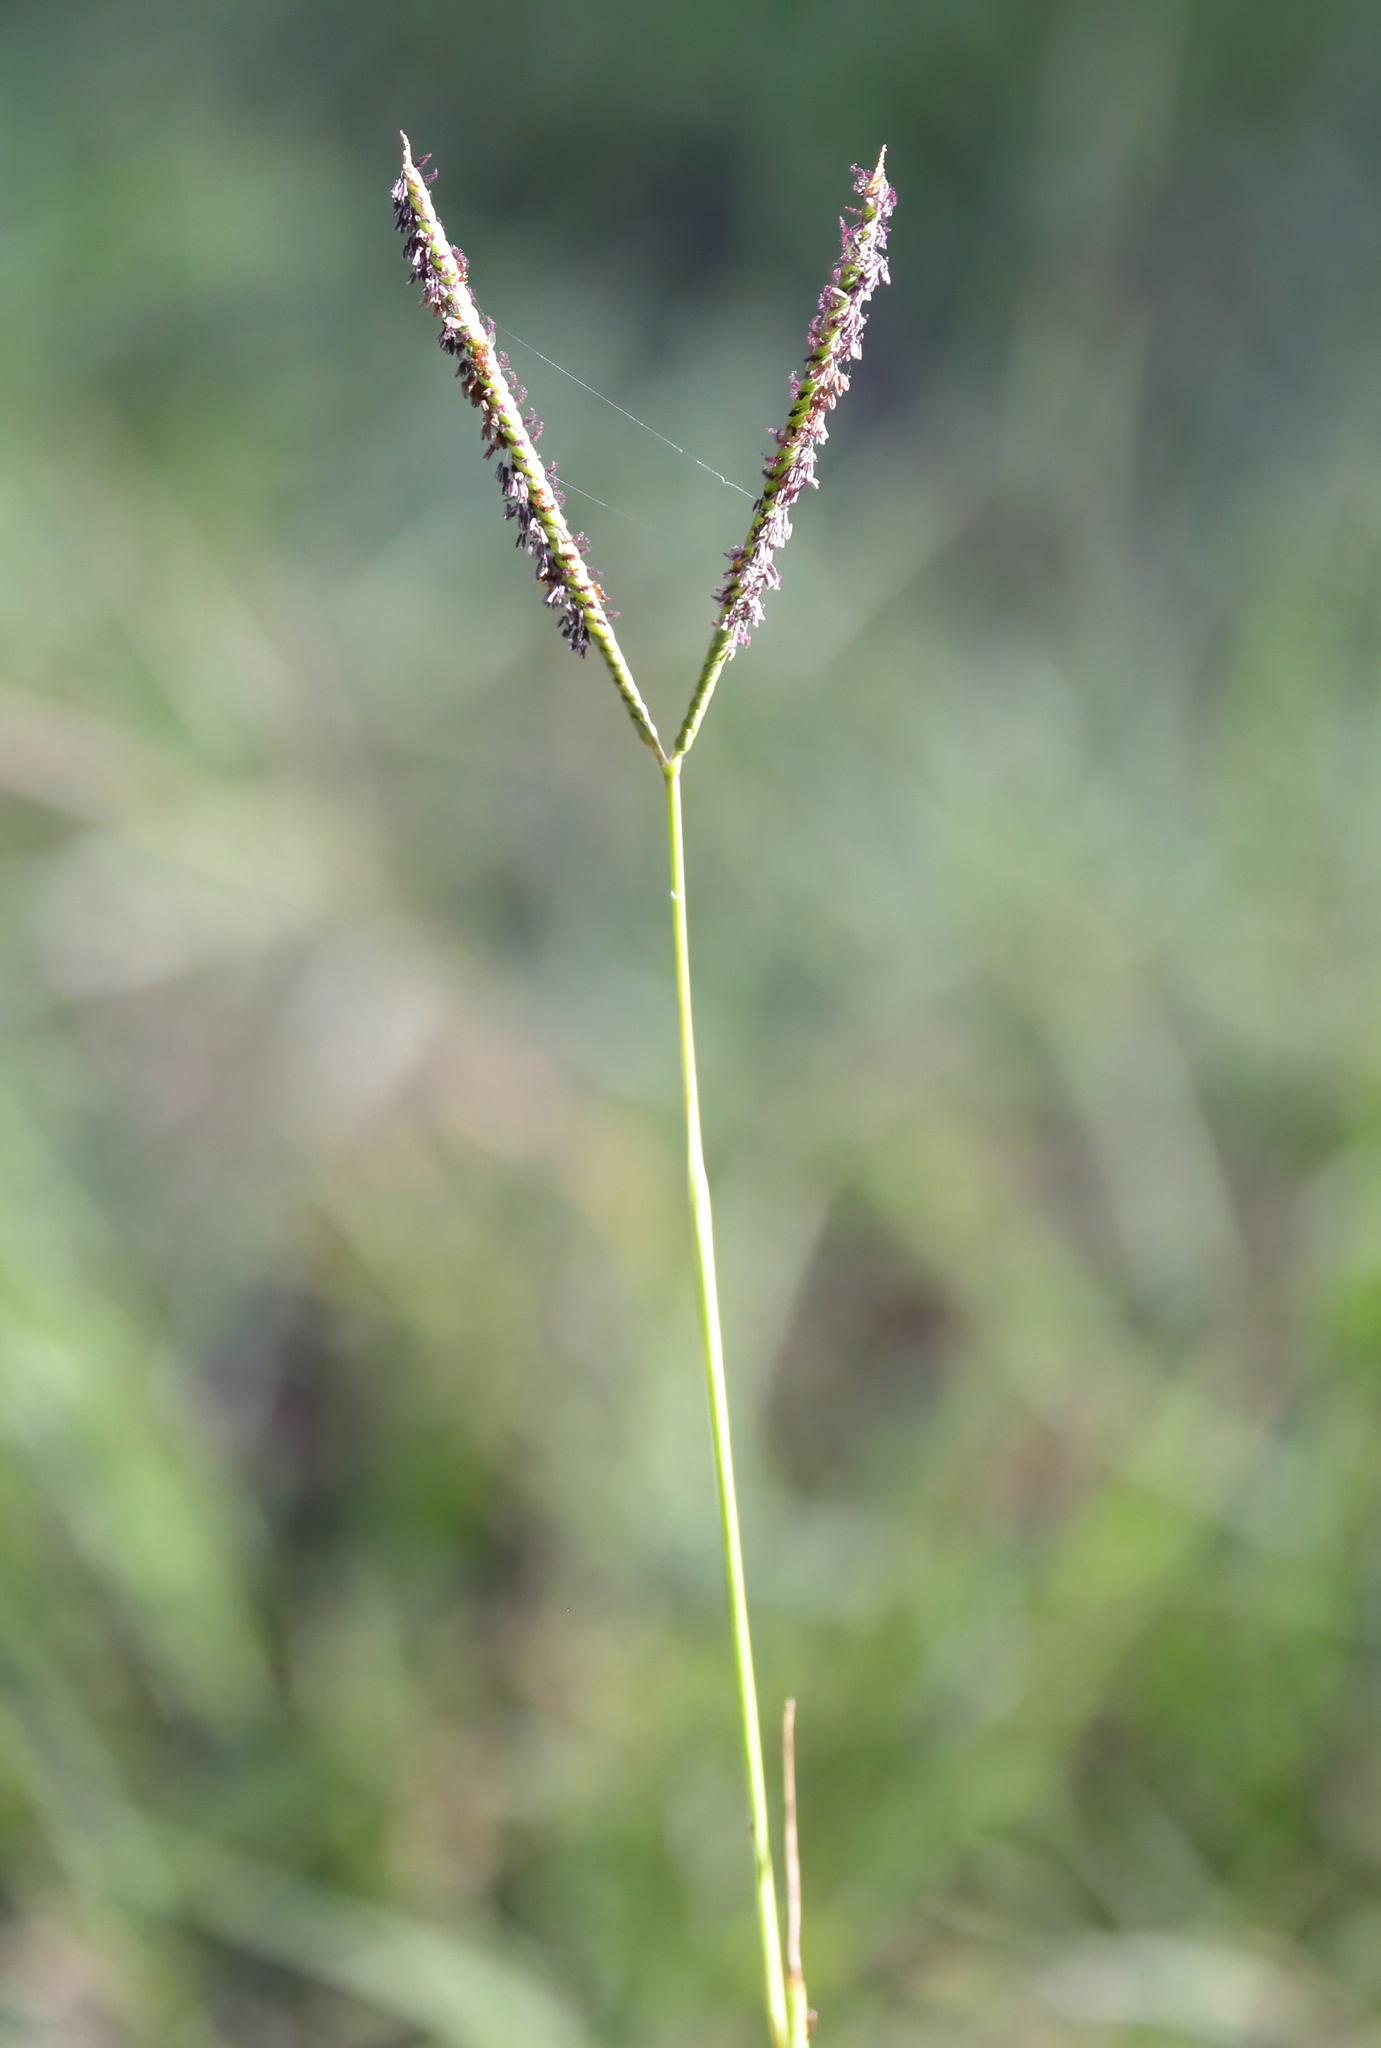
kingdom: Plantae
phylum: Tracheophyta
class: Liliopsida
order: Poales
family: Poaceae
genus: Paspalum
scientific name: Paspalum notatum
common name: Bahiagrass
